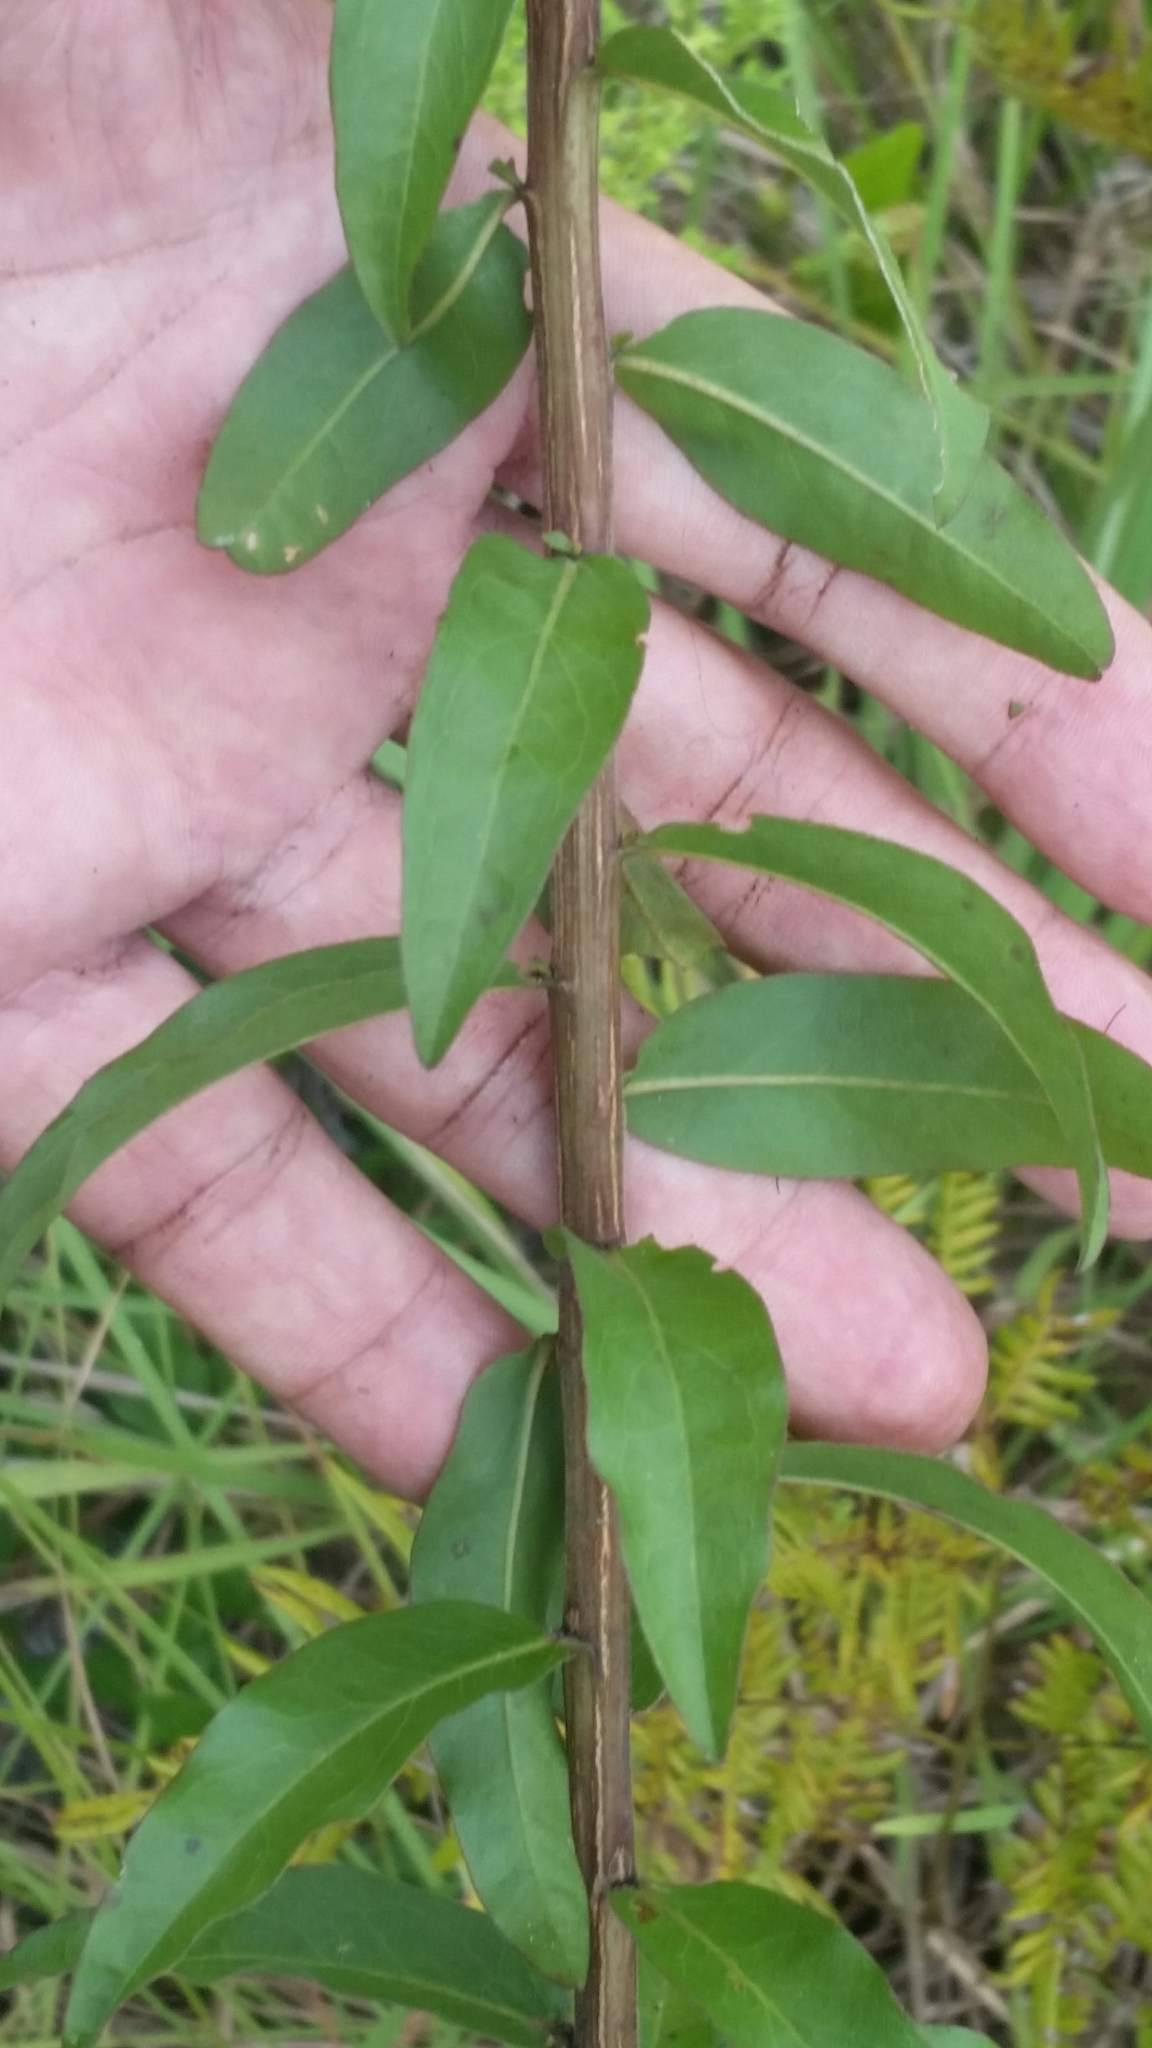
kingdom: Plantae
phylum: Tracheophyta
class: Magnoliopsida
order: Asterales
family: Asteraceae
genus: Solidago
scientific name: Solidago chapmanii
